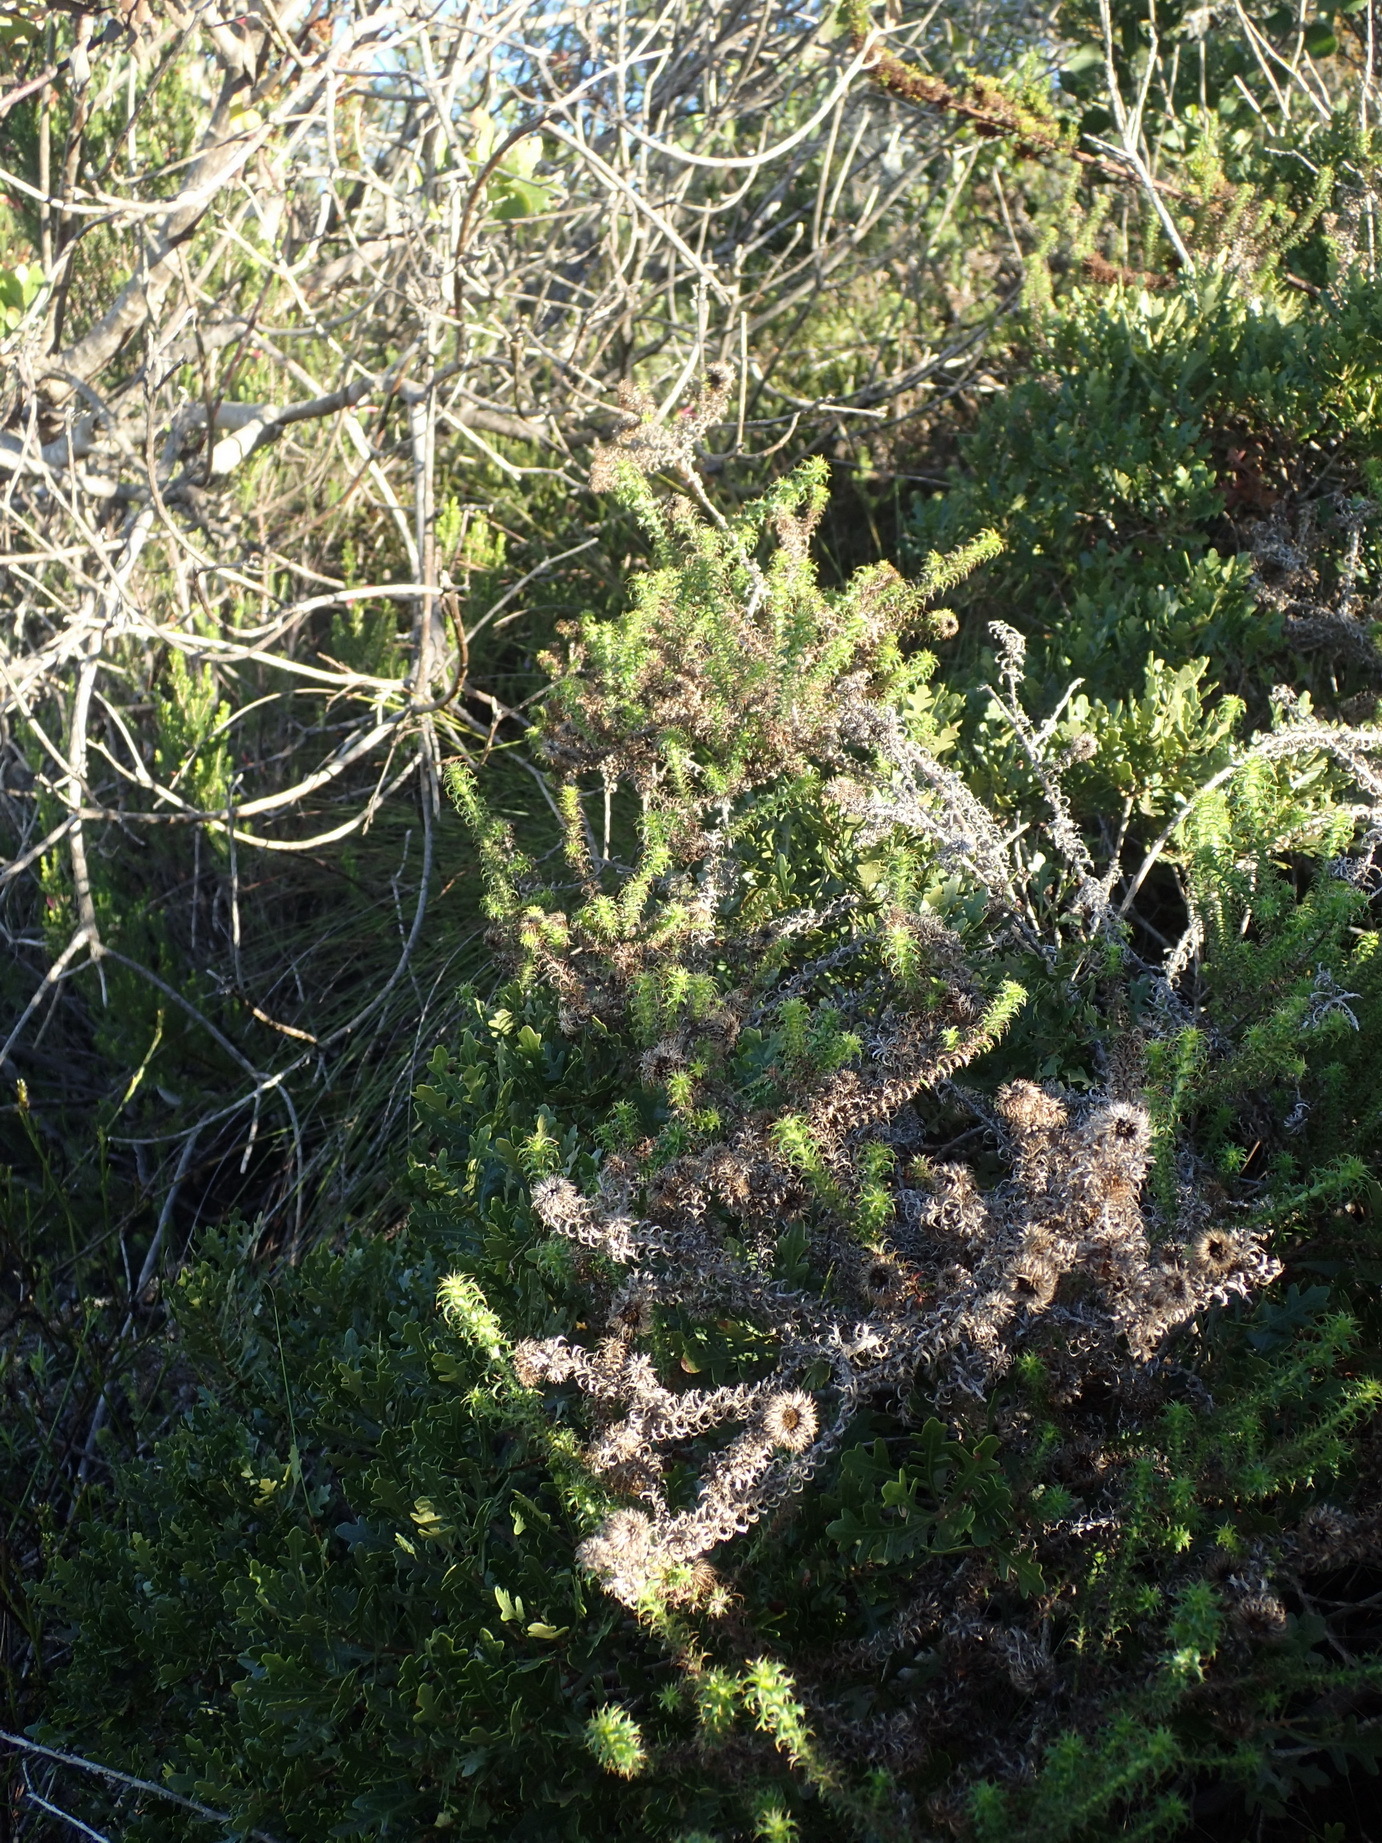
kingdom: Plantae
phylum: Tracheophyta
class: Magnoliopsida
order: Asterales
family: Asteraceae
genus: Cullumia
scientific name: Cullumia decurrens
